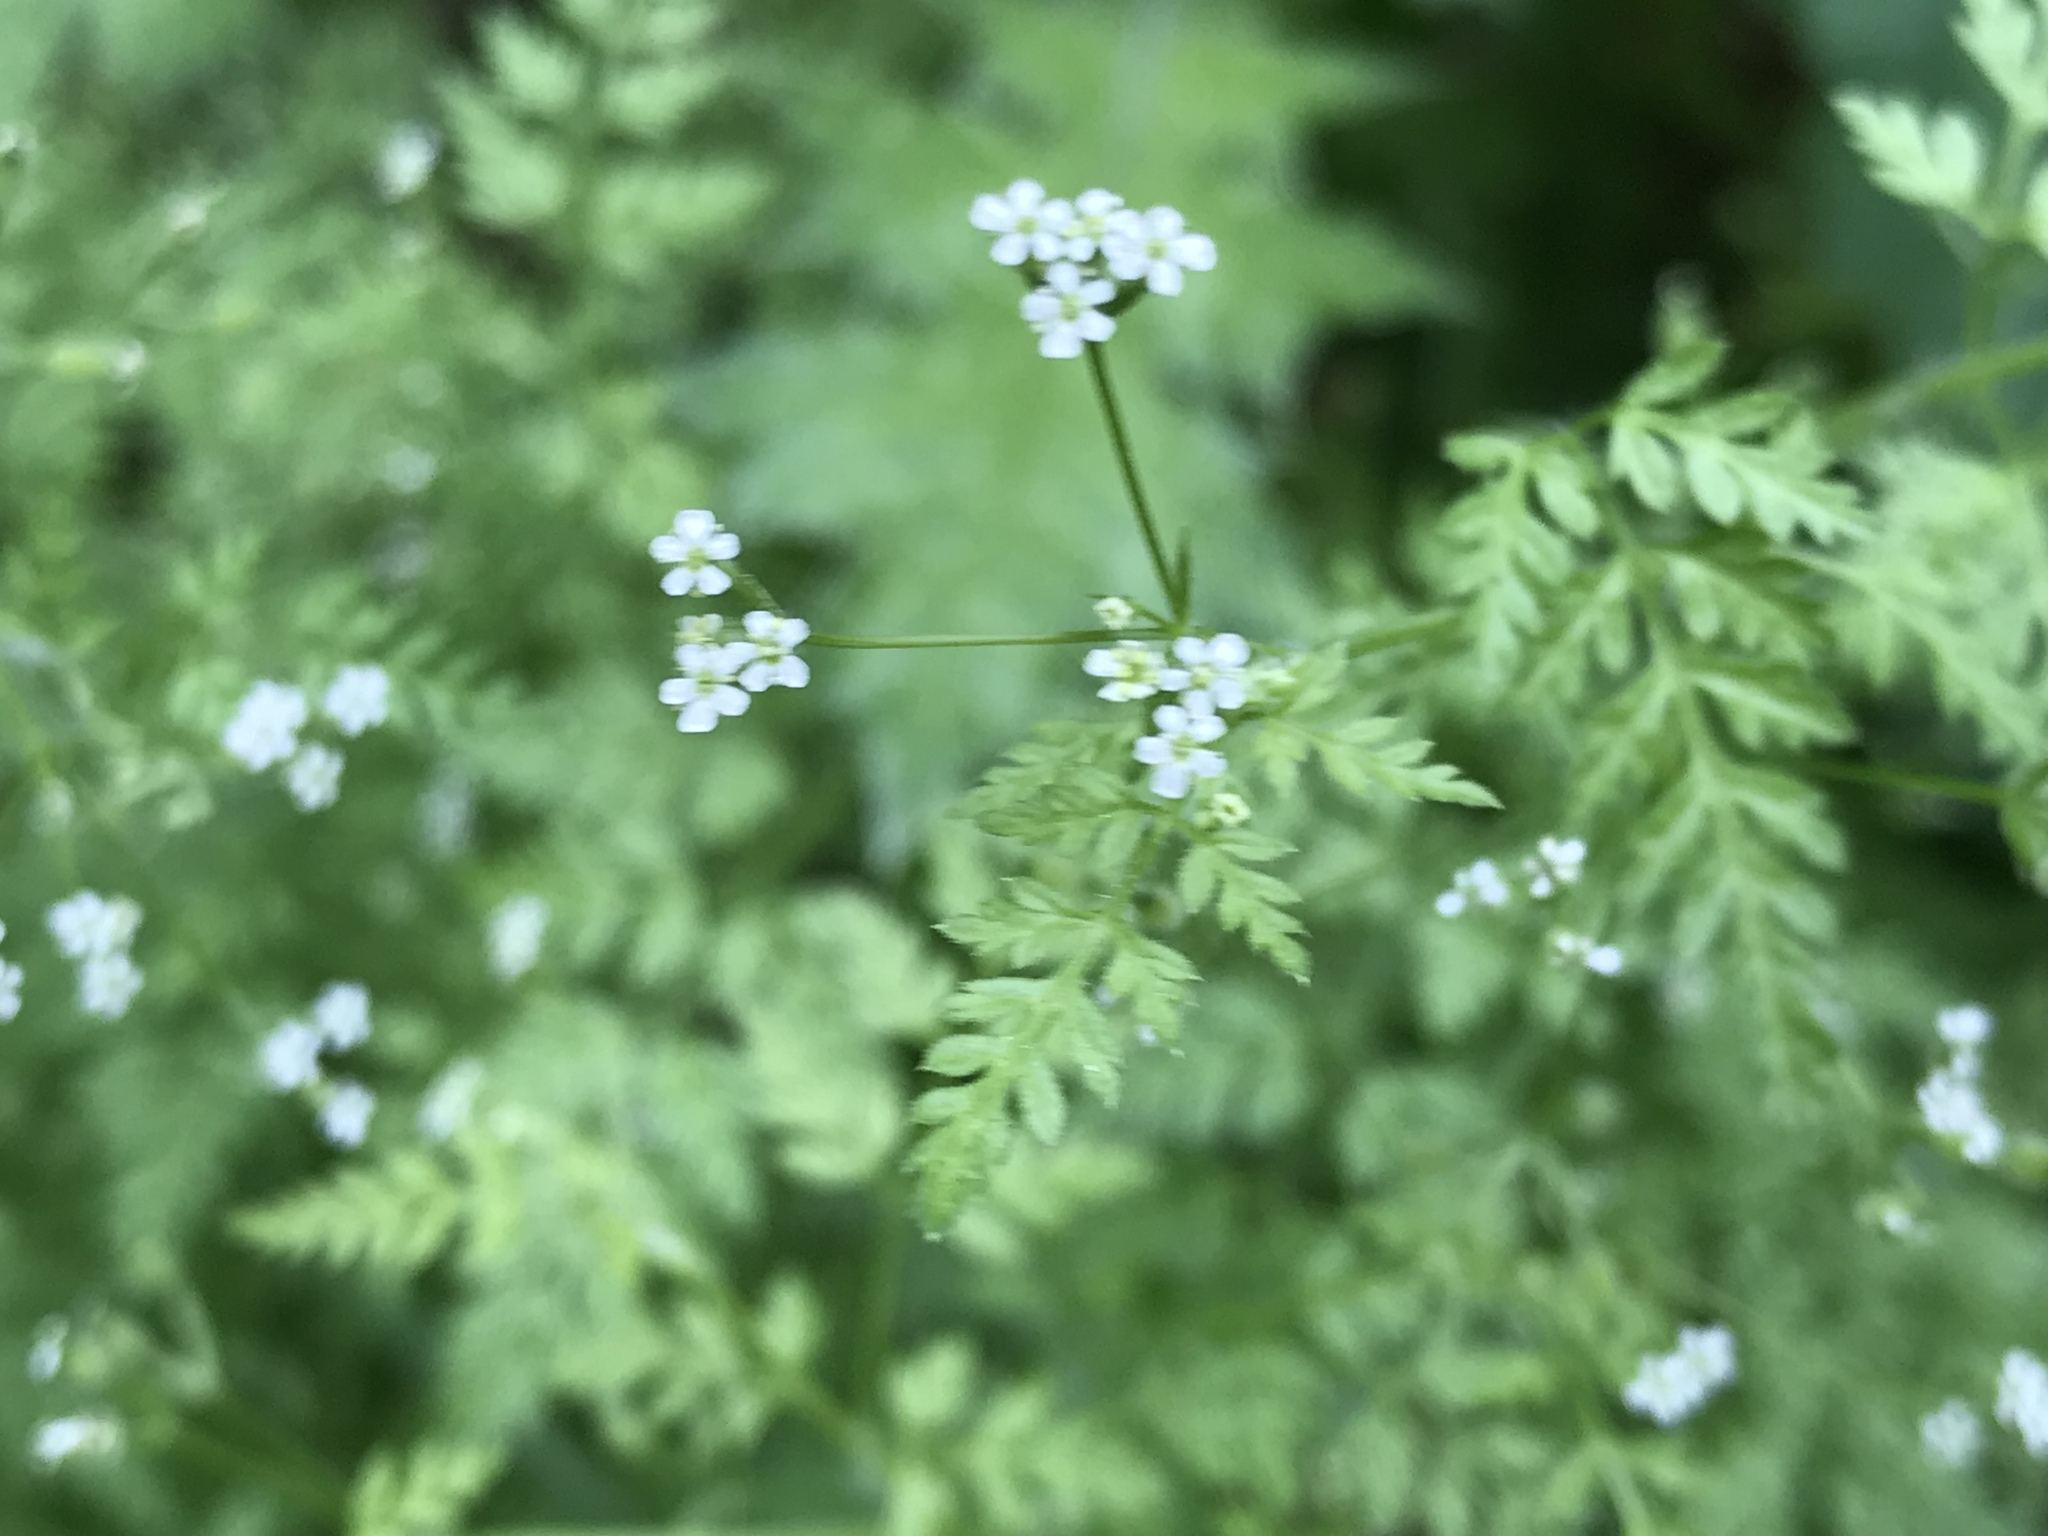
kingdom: Plantae
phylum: Tracheophyta
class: Magnoliopsida
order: Apiales
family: Apiaceae
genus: Anthriscus
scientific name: Anthriscus caucalis
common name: Bur chervil
